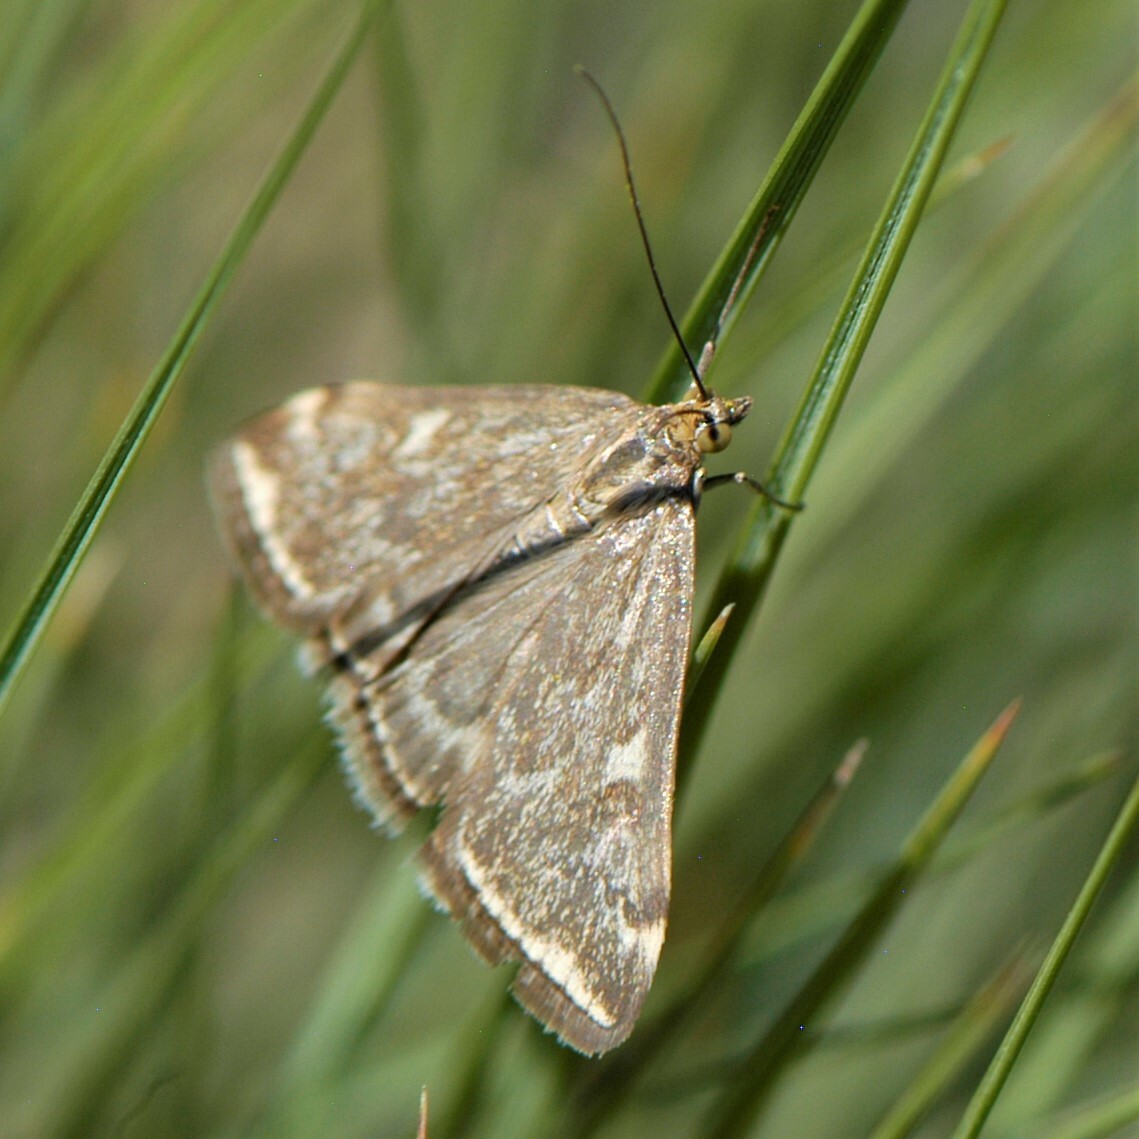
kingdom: Animalia
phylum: Arthropoda
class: Insecta
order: Lepidoptera
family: Crambidae
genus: Loxostege
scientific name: Loxostege
